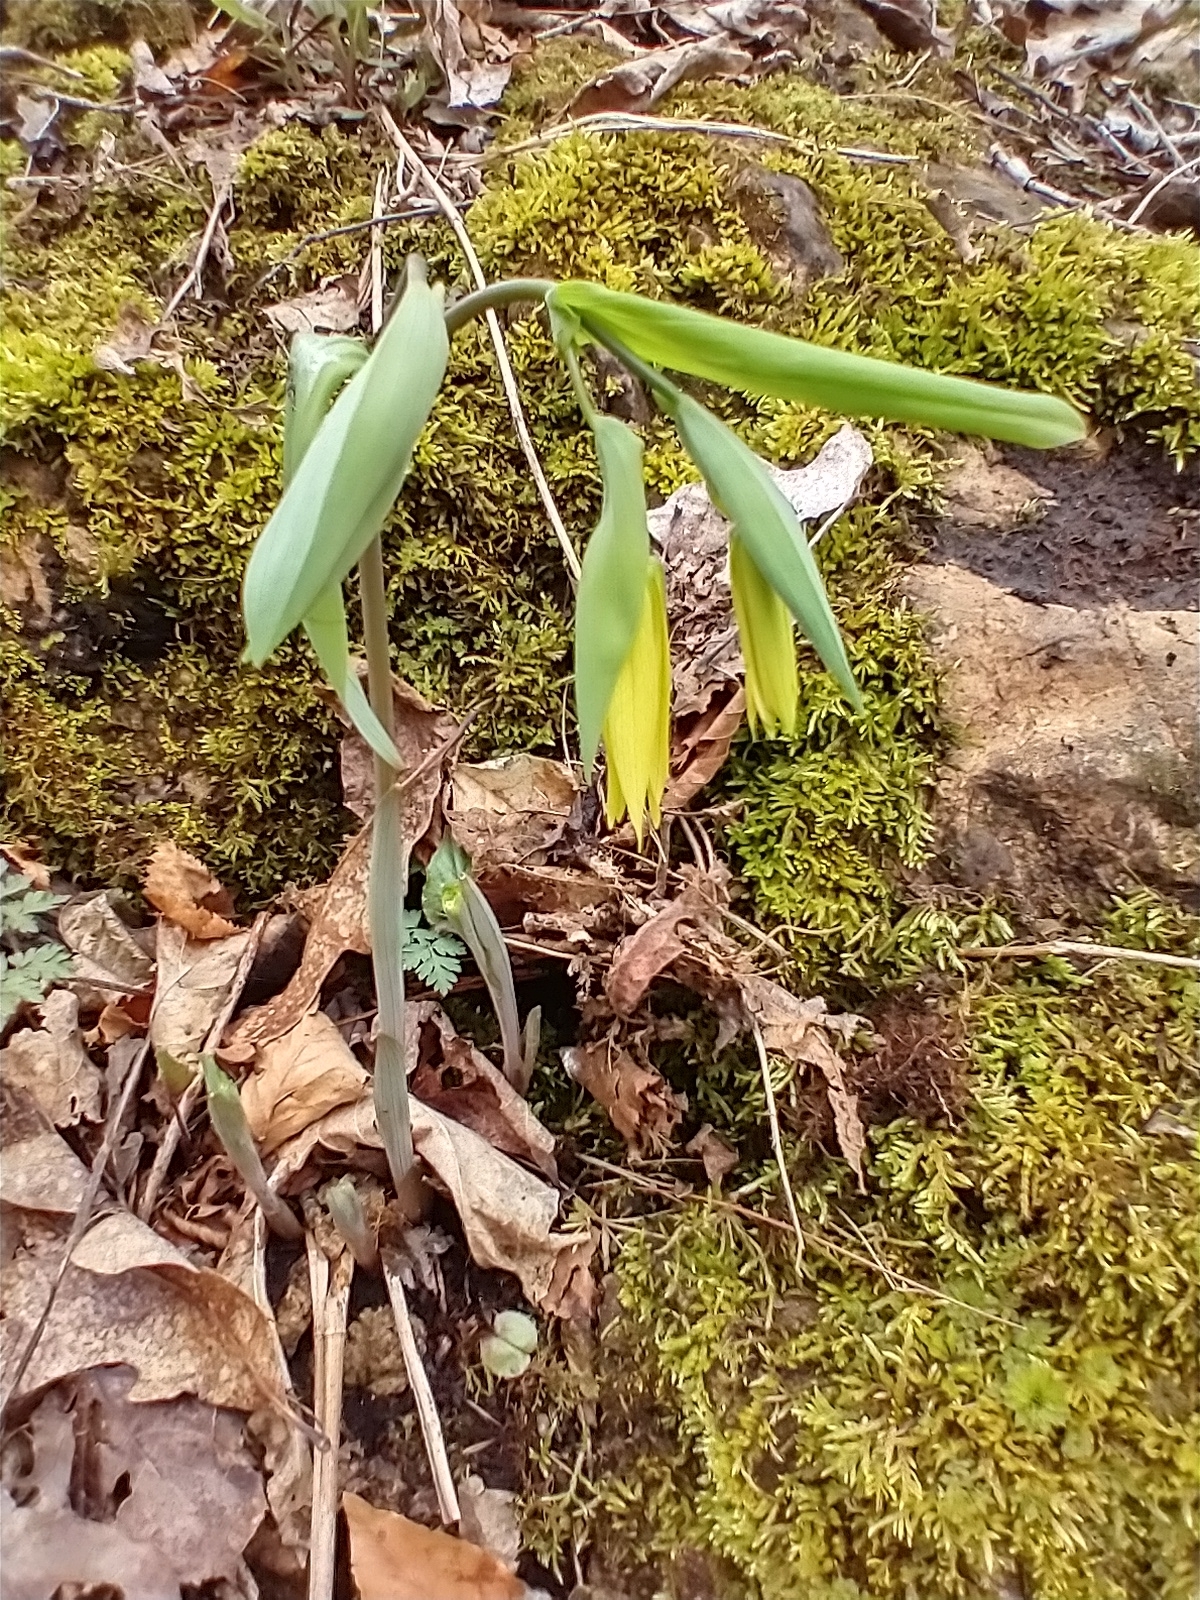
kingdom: Plantae
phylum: Tracheophyta
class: Liliopsida
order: Liliales
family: Colchicaceae
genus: Uvularia
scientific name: Uvularia grandiflora
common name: Bellwort
